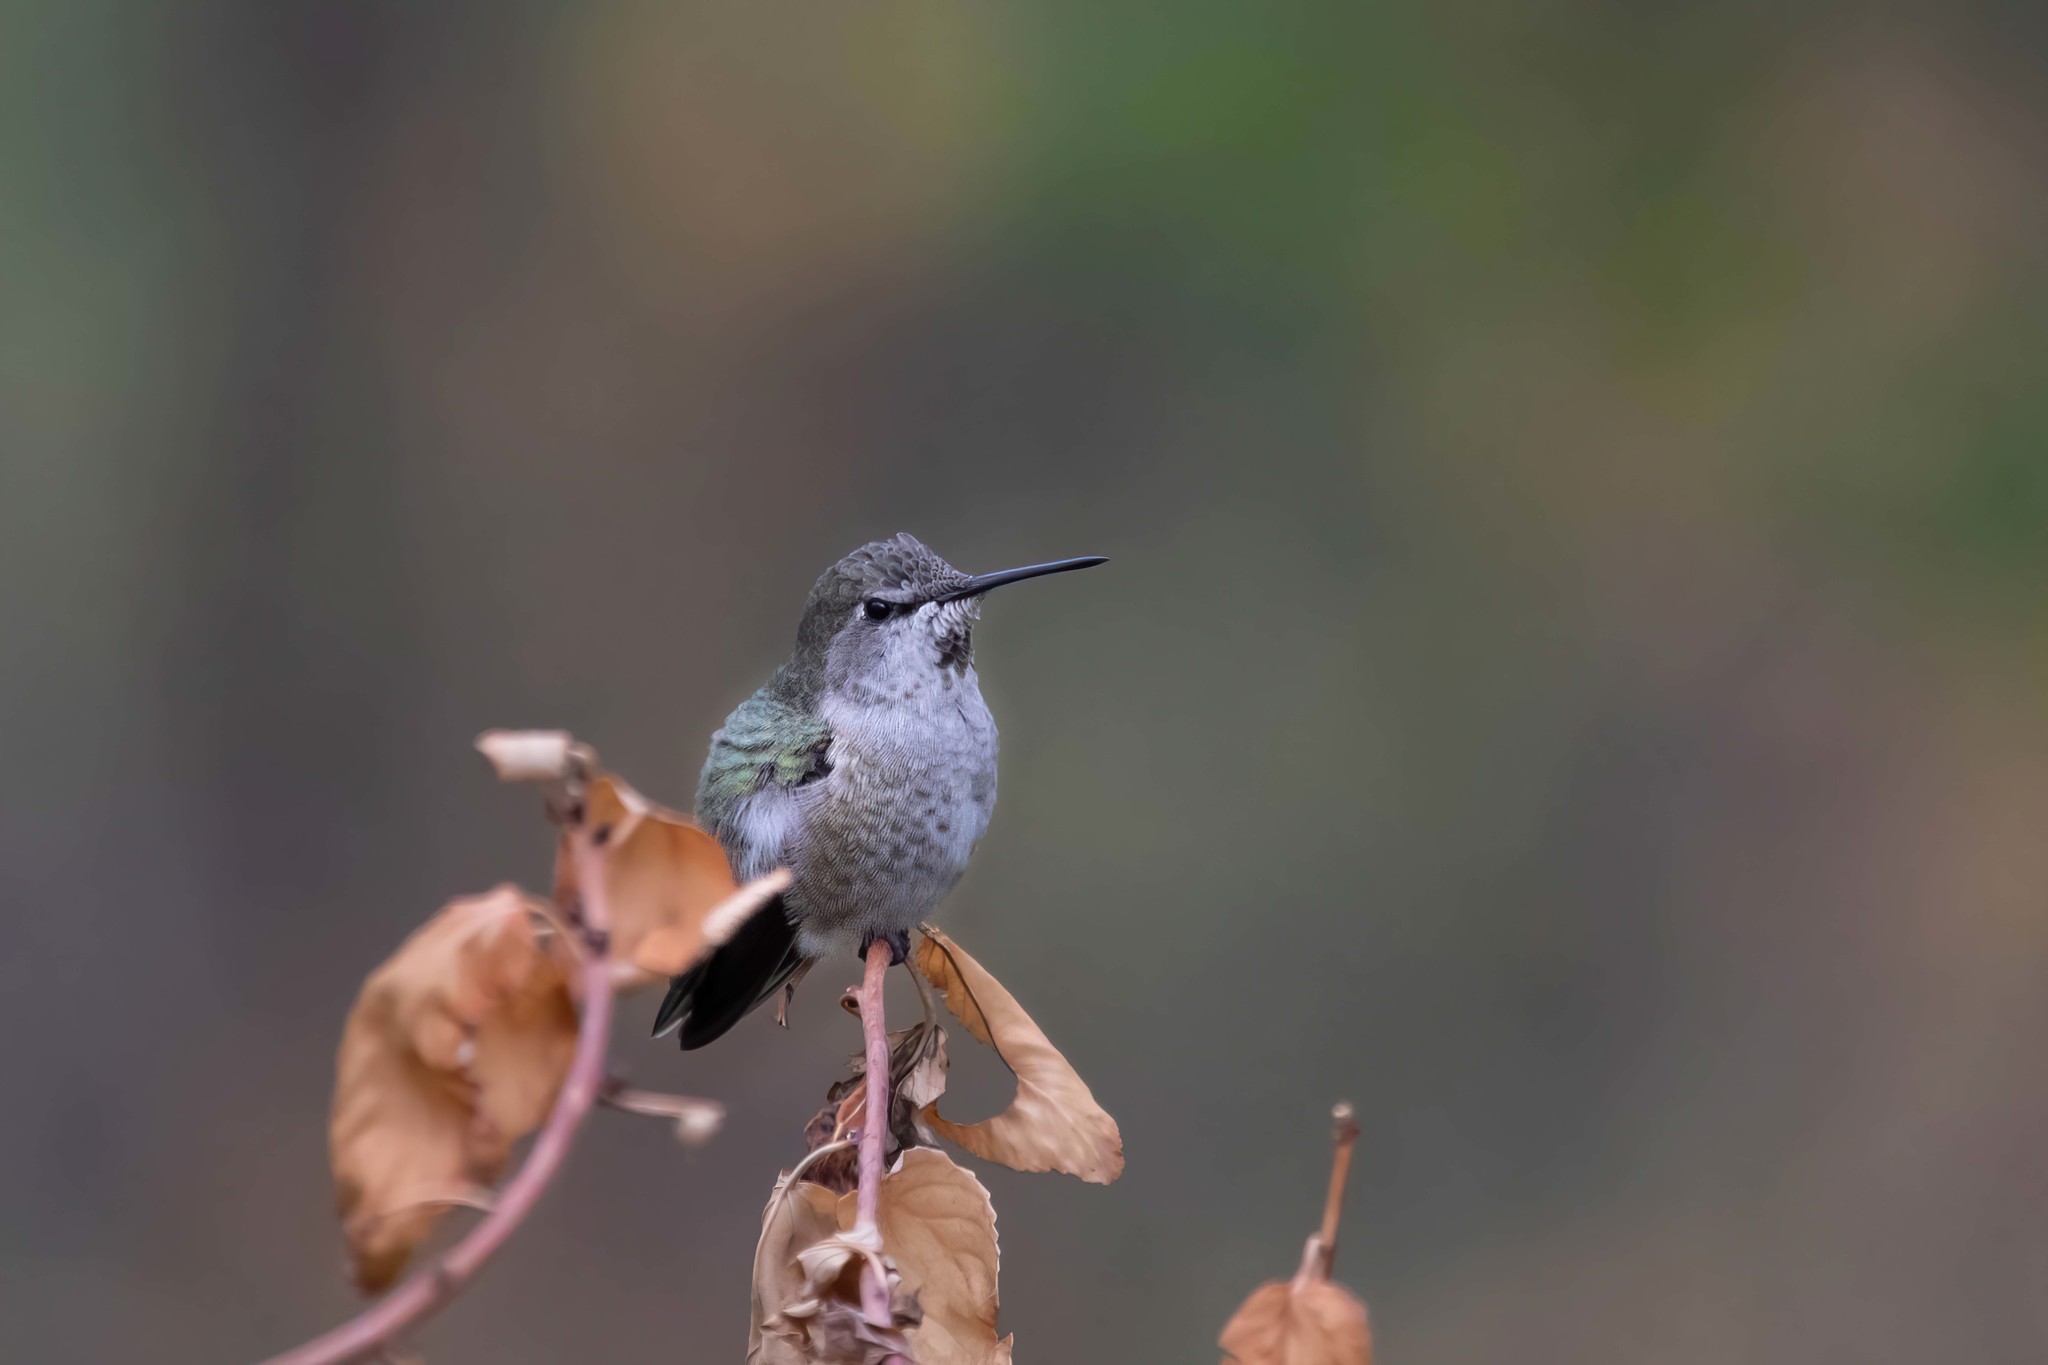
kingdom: Animalia
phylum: Chordata
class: Aves
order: Apodiformes
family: Trochilidae
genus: Calypte
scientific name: Calypte anna
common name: Anna's hummingbird
